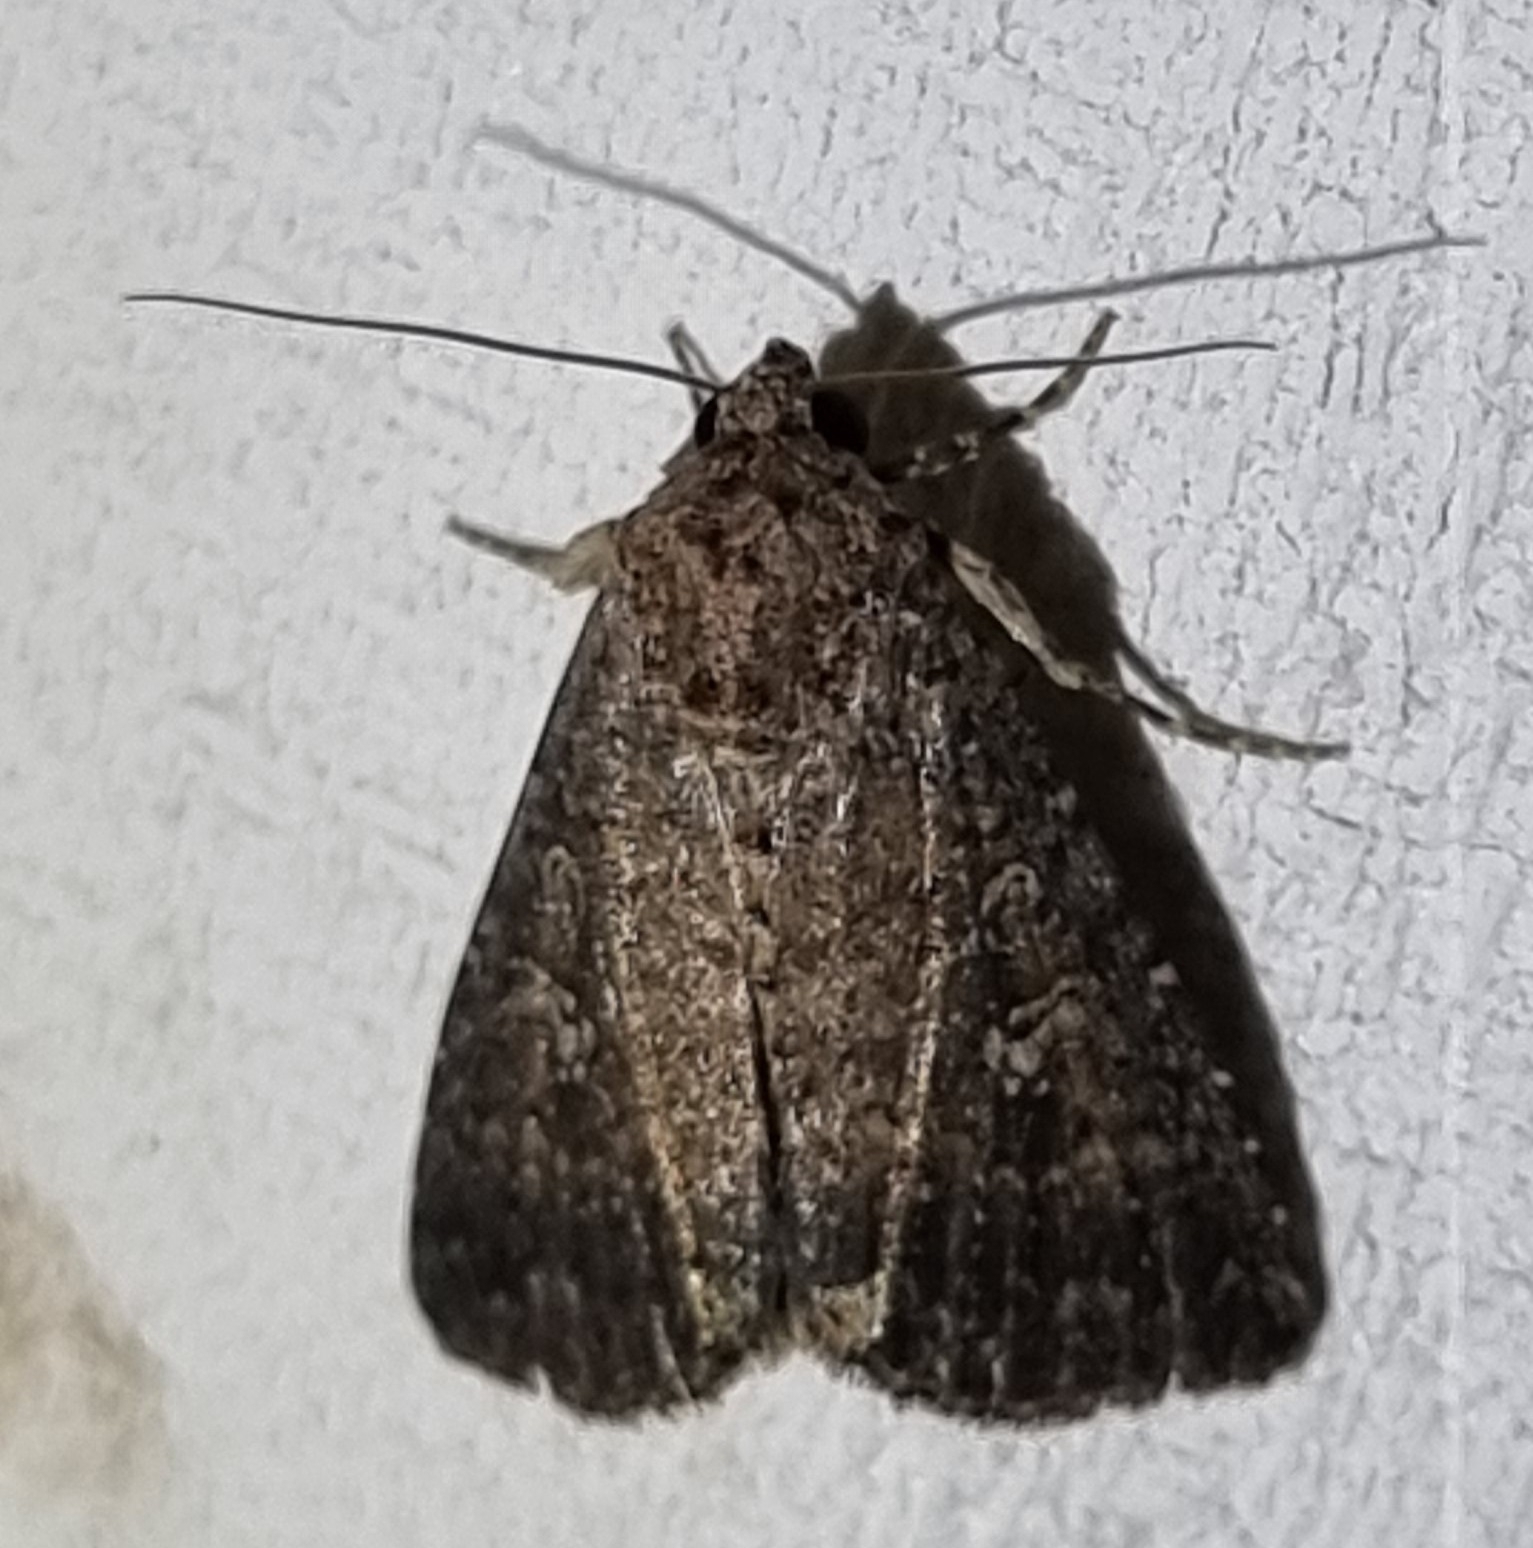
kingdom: Animalia
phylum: Arthropoda
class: Insecta
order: Lepidoptera
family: Noctuidae
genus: Condica
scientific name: Condica illecta
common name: Cutworm
